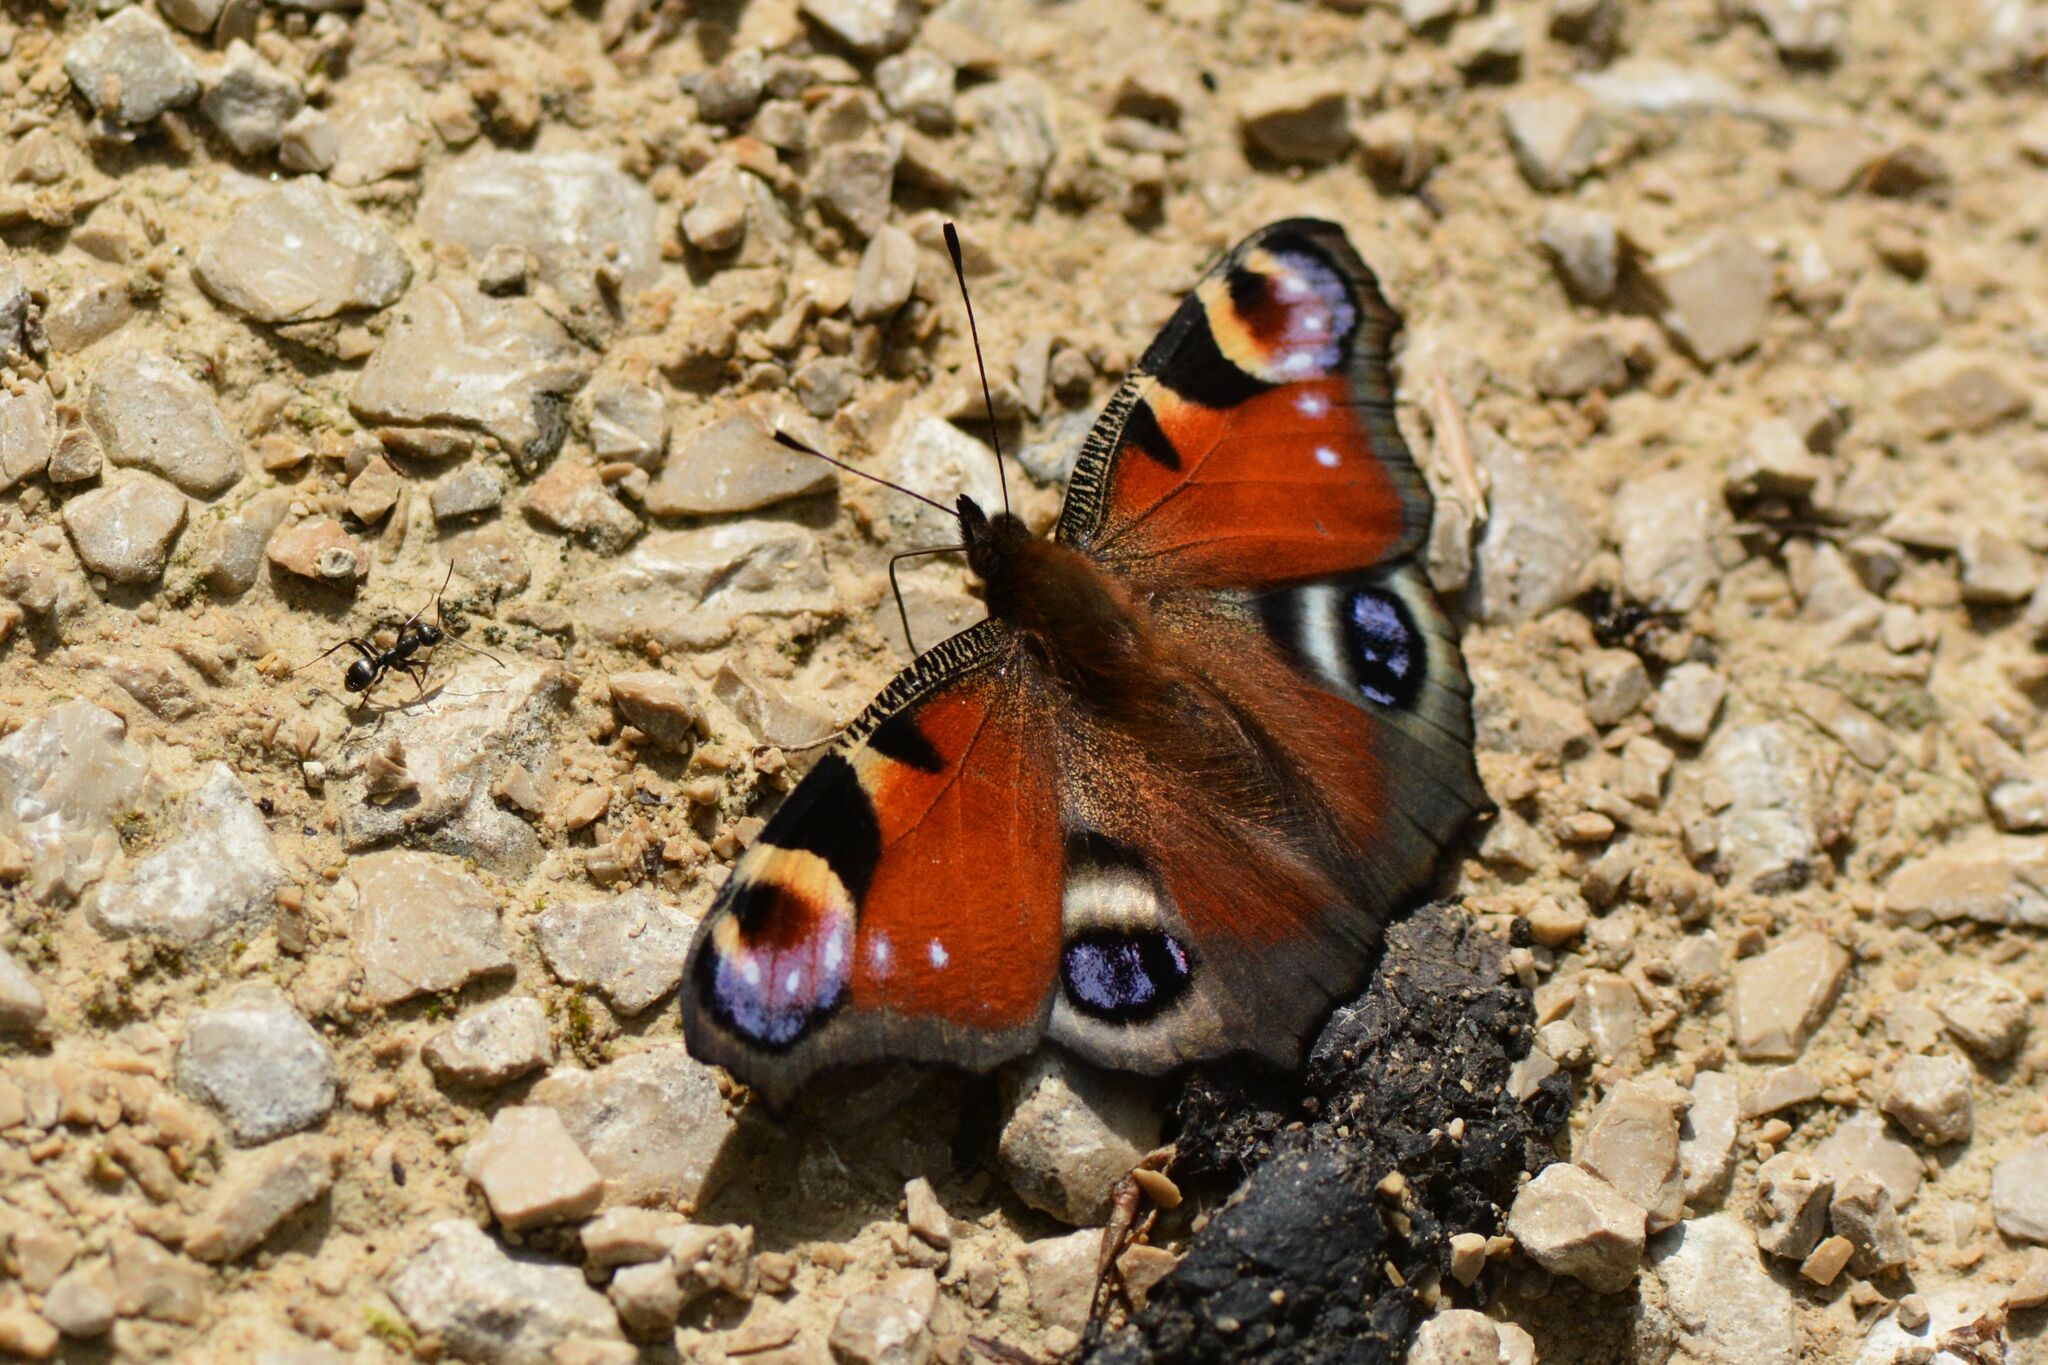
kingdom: Animalia
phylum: Arthropoda
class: Insecta
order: Lepidoptera
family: Nymphalidae
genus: Aglais
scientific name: Aglais io
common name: Peacock
